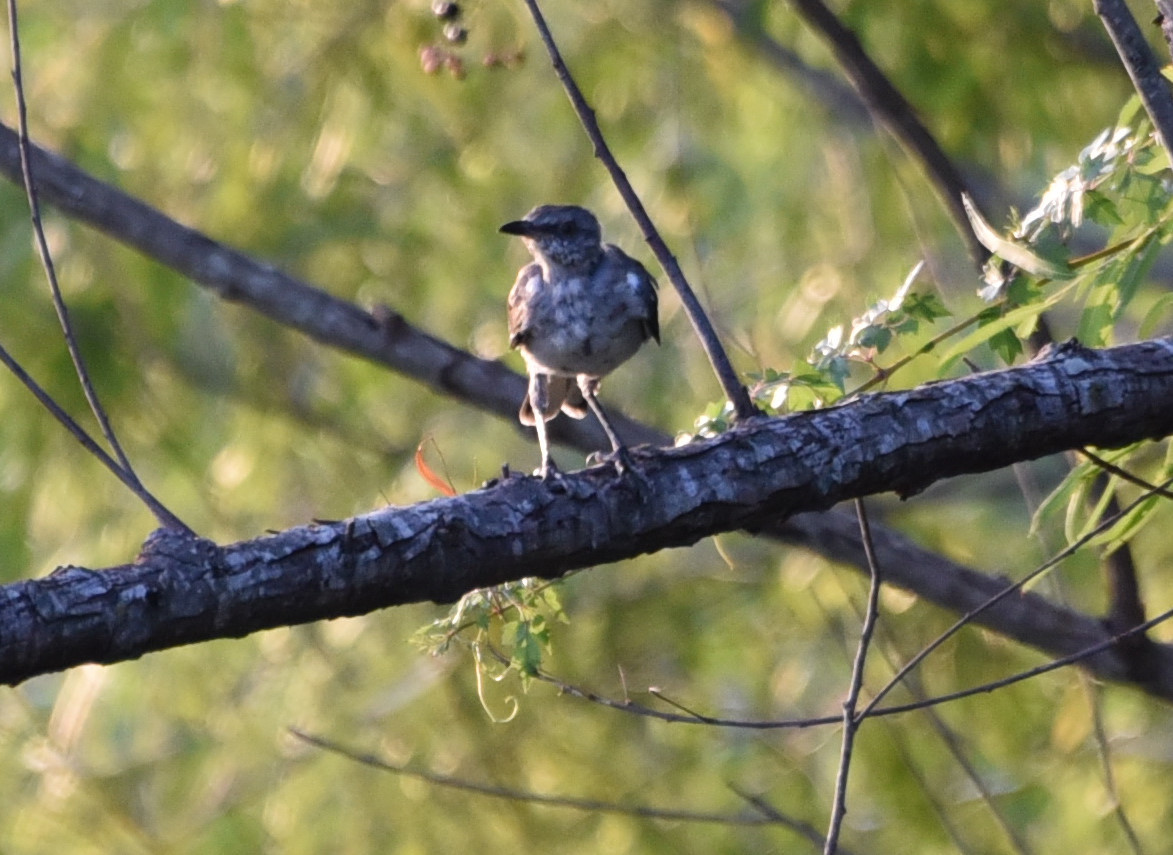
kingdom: Animalia
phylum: Chordata
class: Aves
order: Passeriformes
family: Mimidae
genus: Mimus
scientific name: Mimus polyglottos
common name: Northern mockingbird
